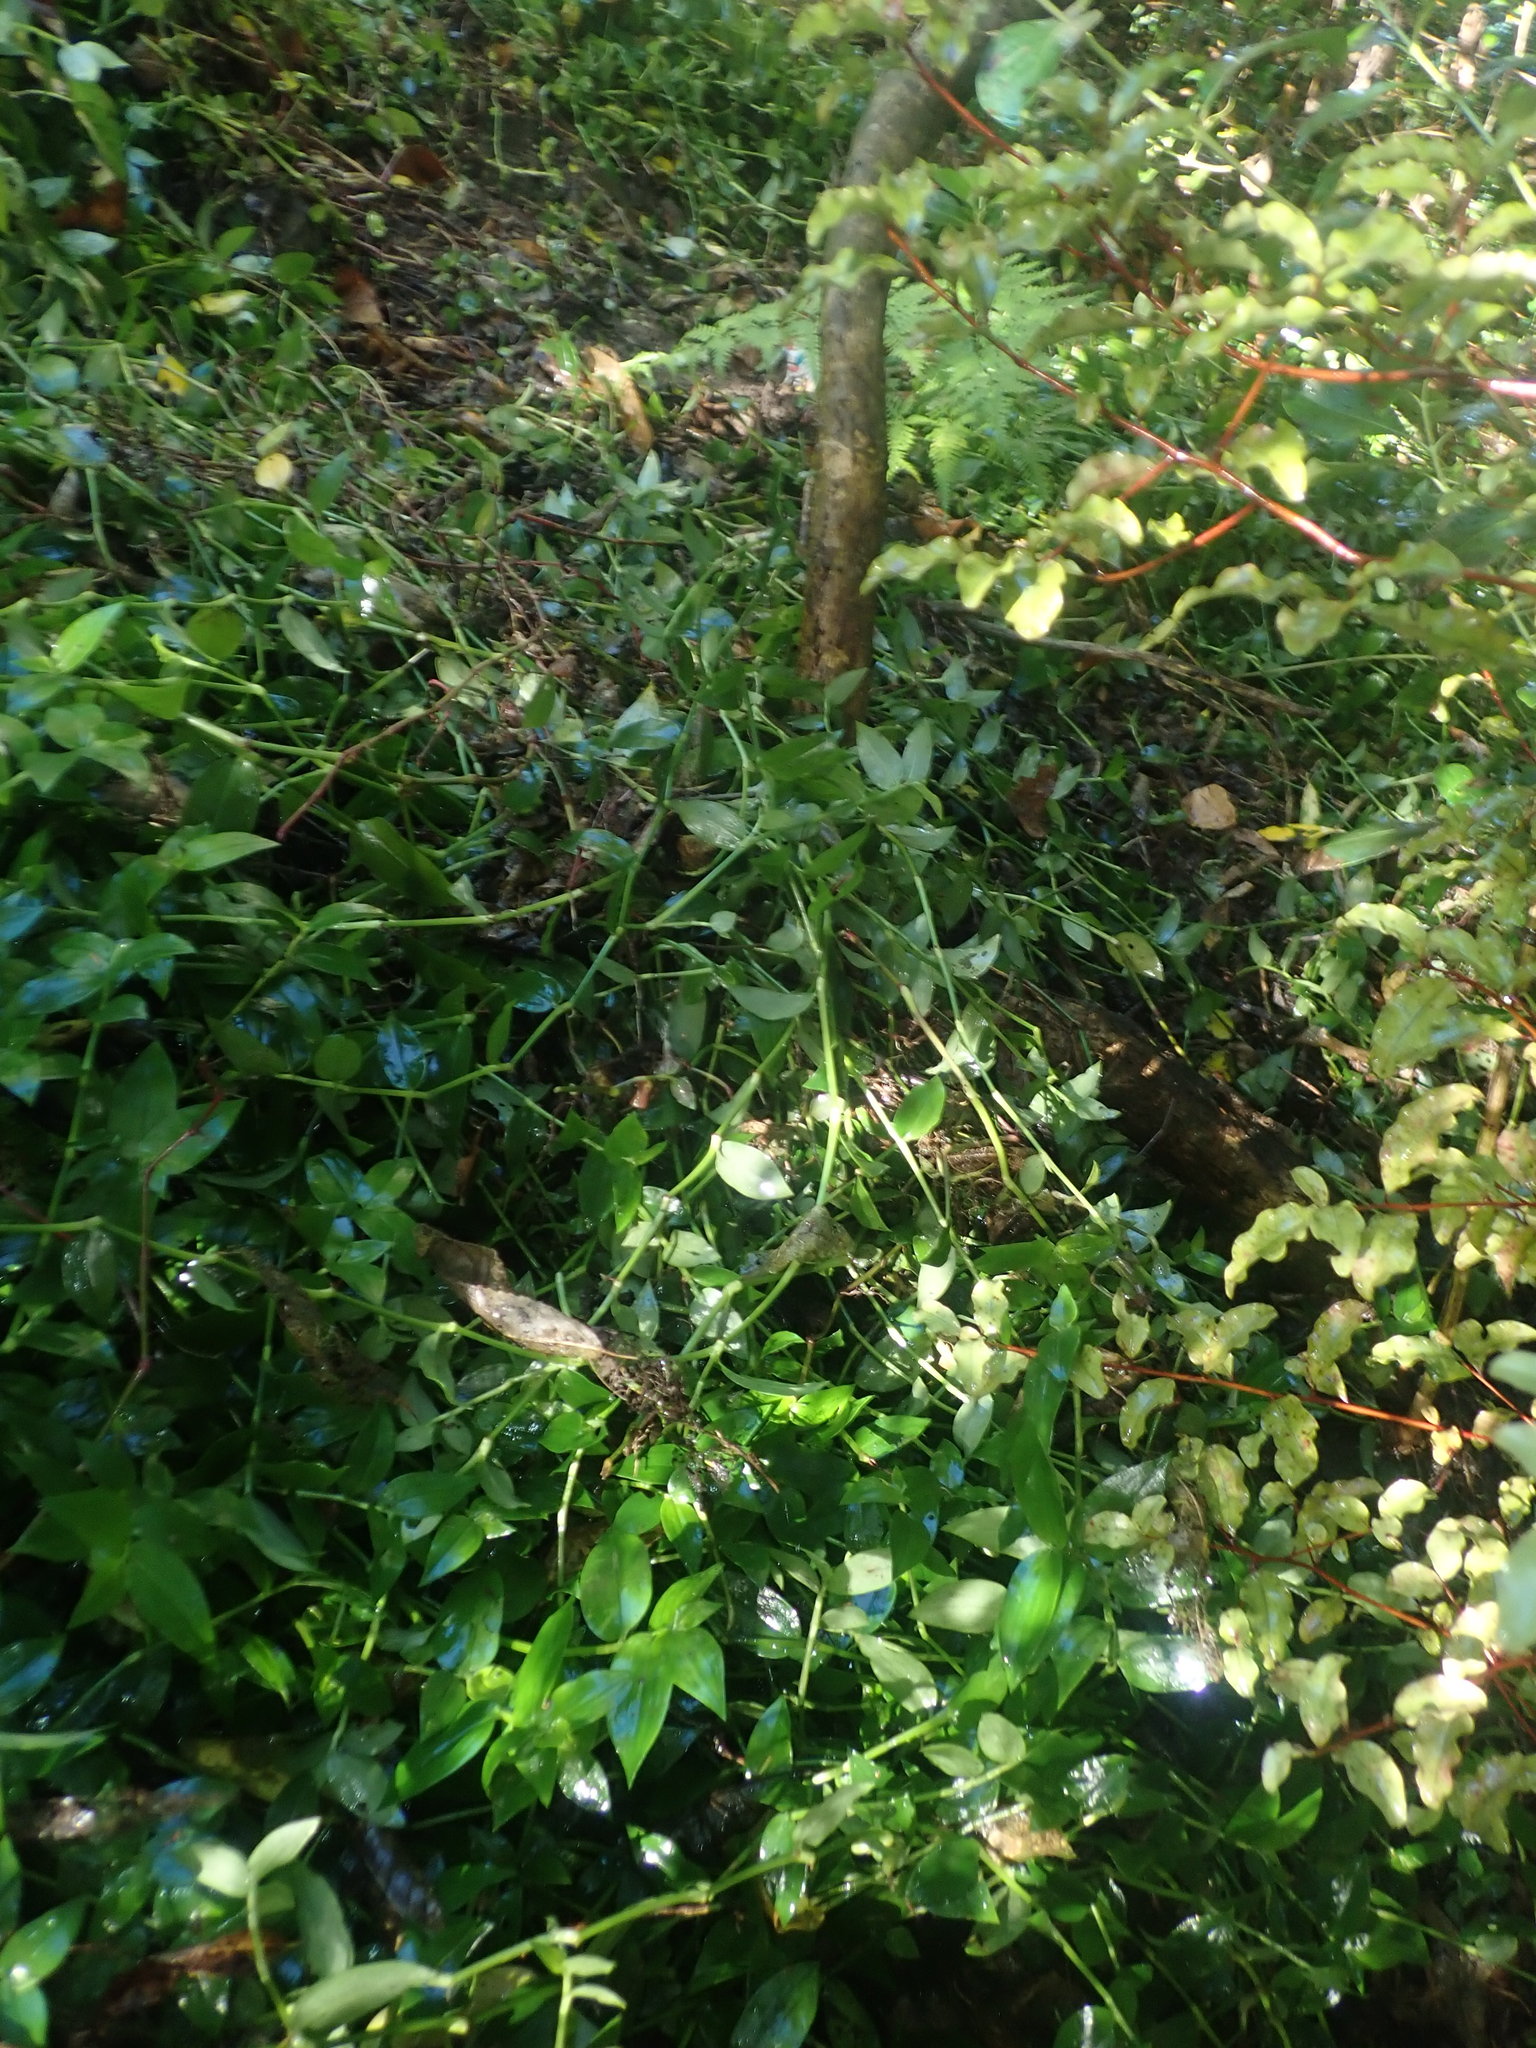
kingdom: Plantae
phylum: Tracheophyta
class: Liliopsida
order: Commelinales
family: Commelinaceae
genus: Tradescantia
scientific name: Tradescantia fluminensis
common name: Wandering-jew
